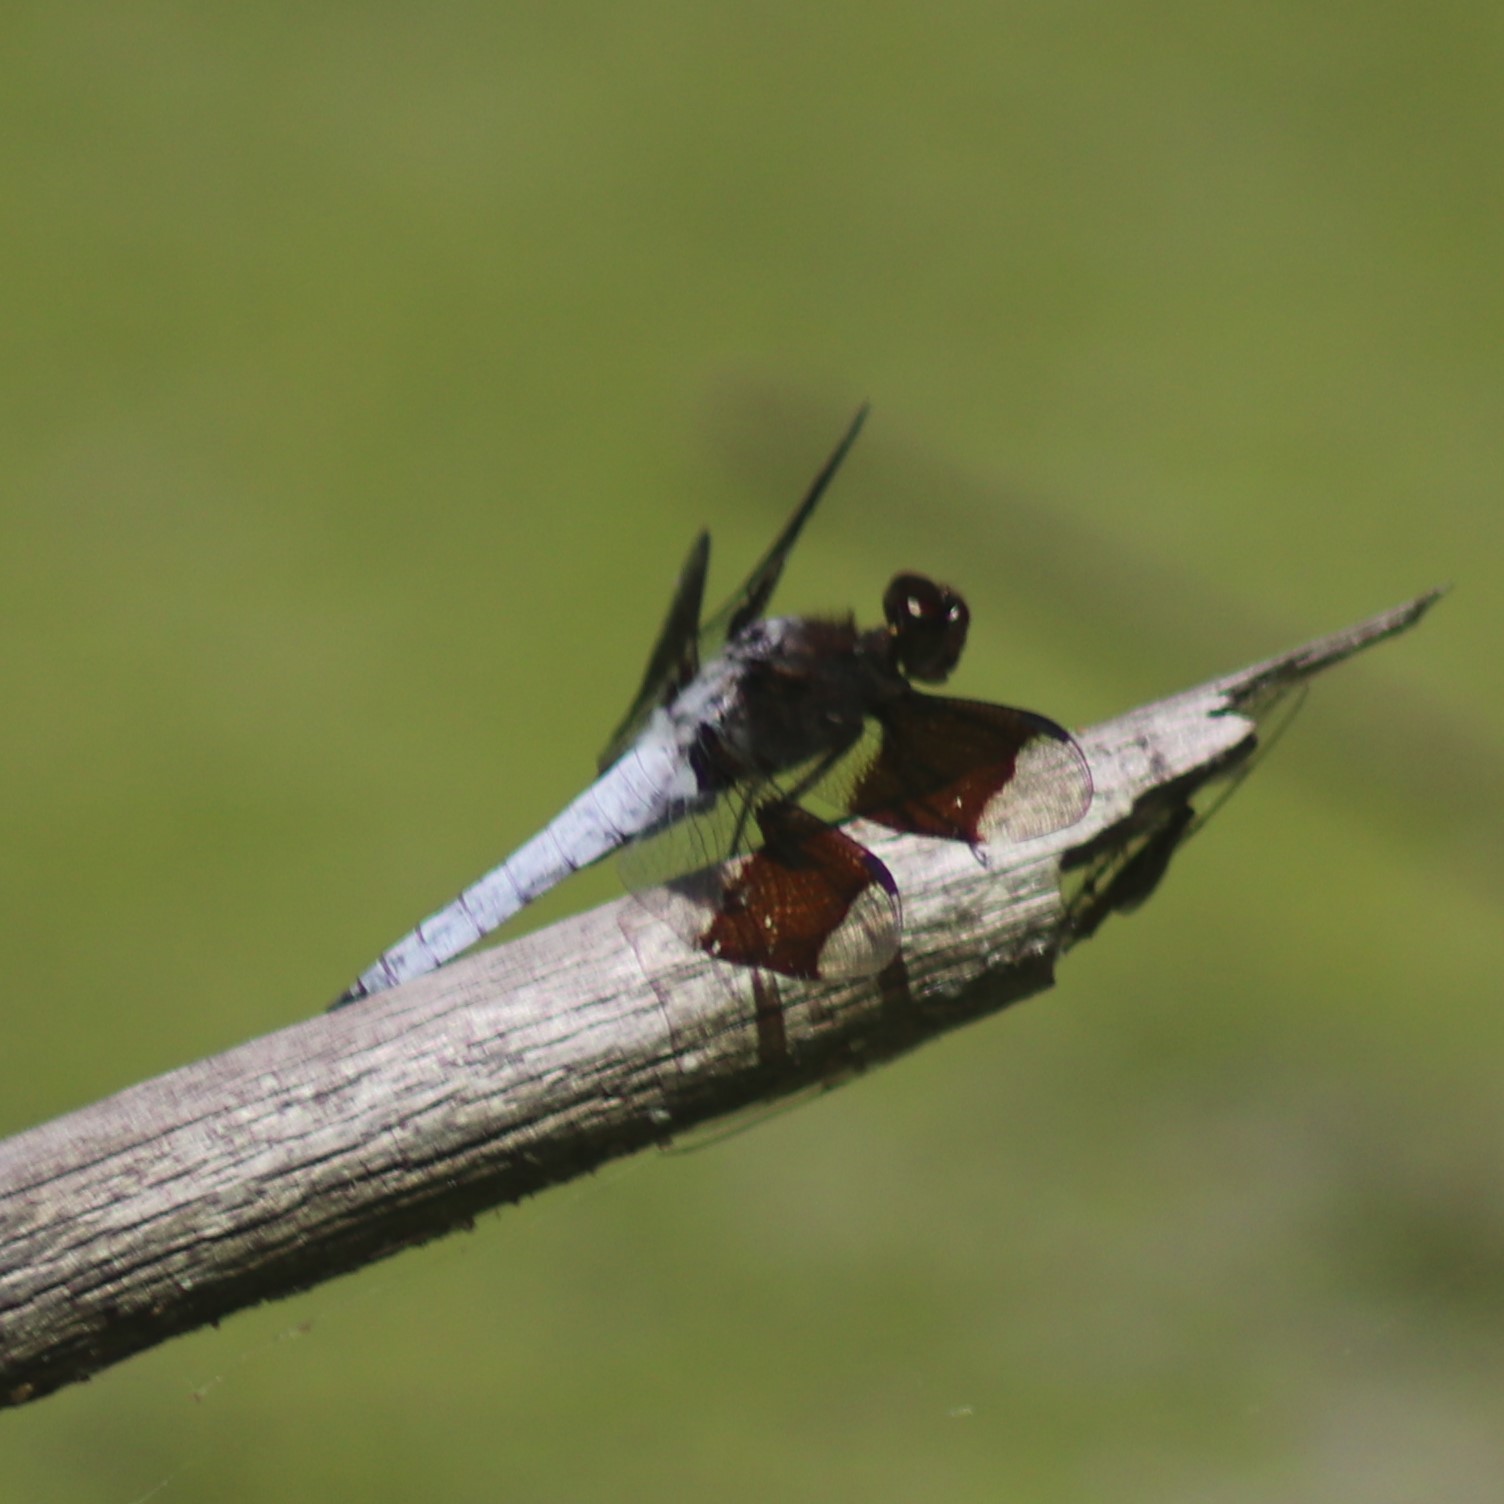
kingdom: Animalia
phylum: Arthropoda
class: Insecta
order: Odonata
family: Libellulidae
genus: Plathemis
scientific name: Plathemis lydia
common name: Common whitetail
